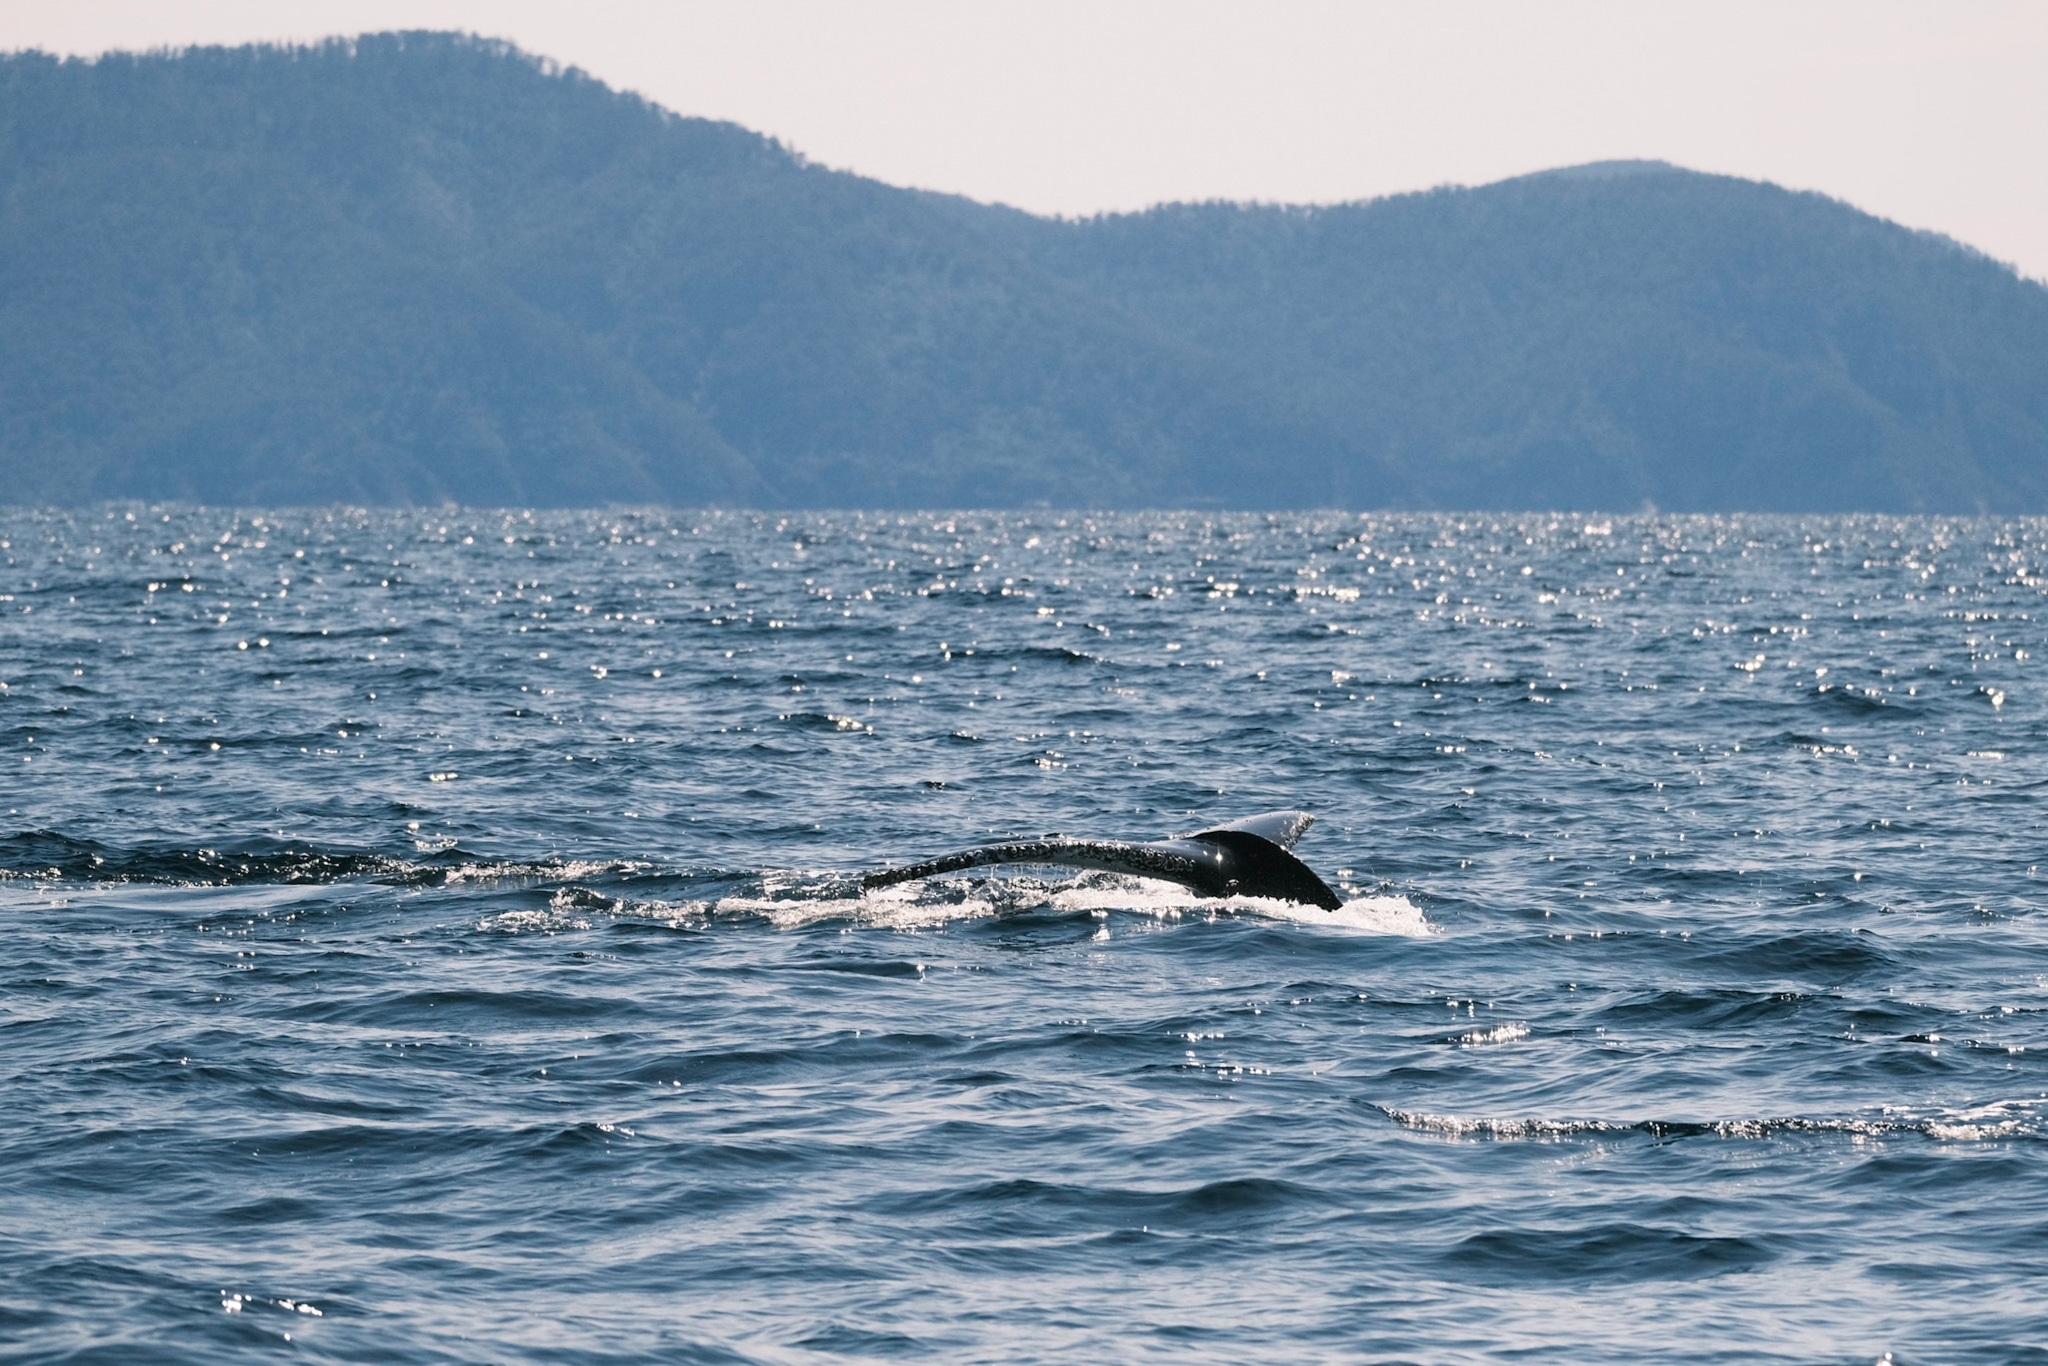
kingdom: Animalia
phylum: Chordata
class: Mammalia
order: Cetacea
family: Balaenopteridae
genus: Megaptera
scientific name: Megaptera novaeangliae
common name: Humpback whale
